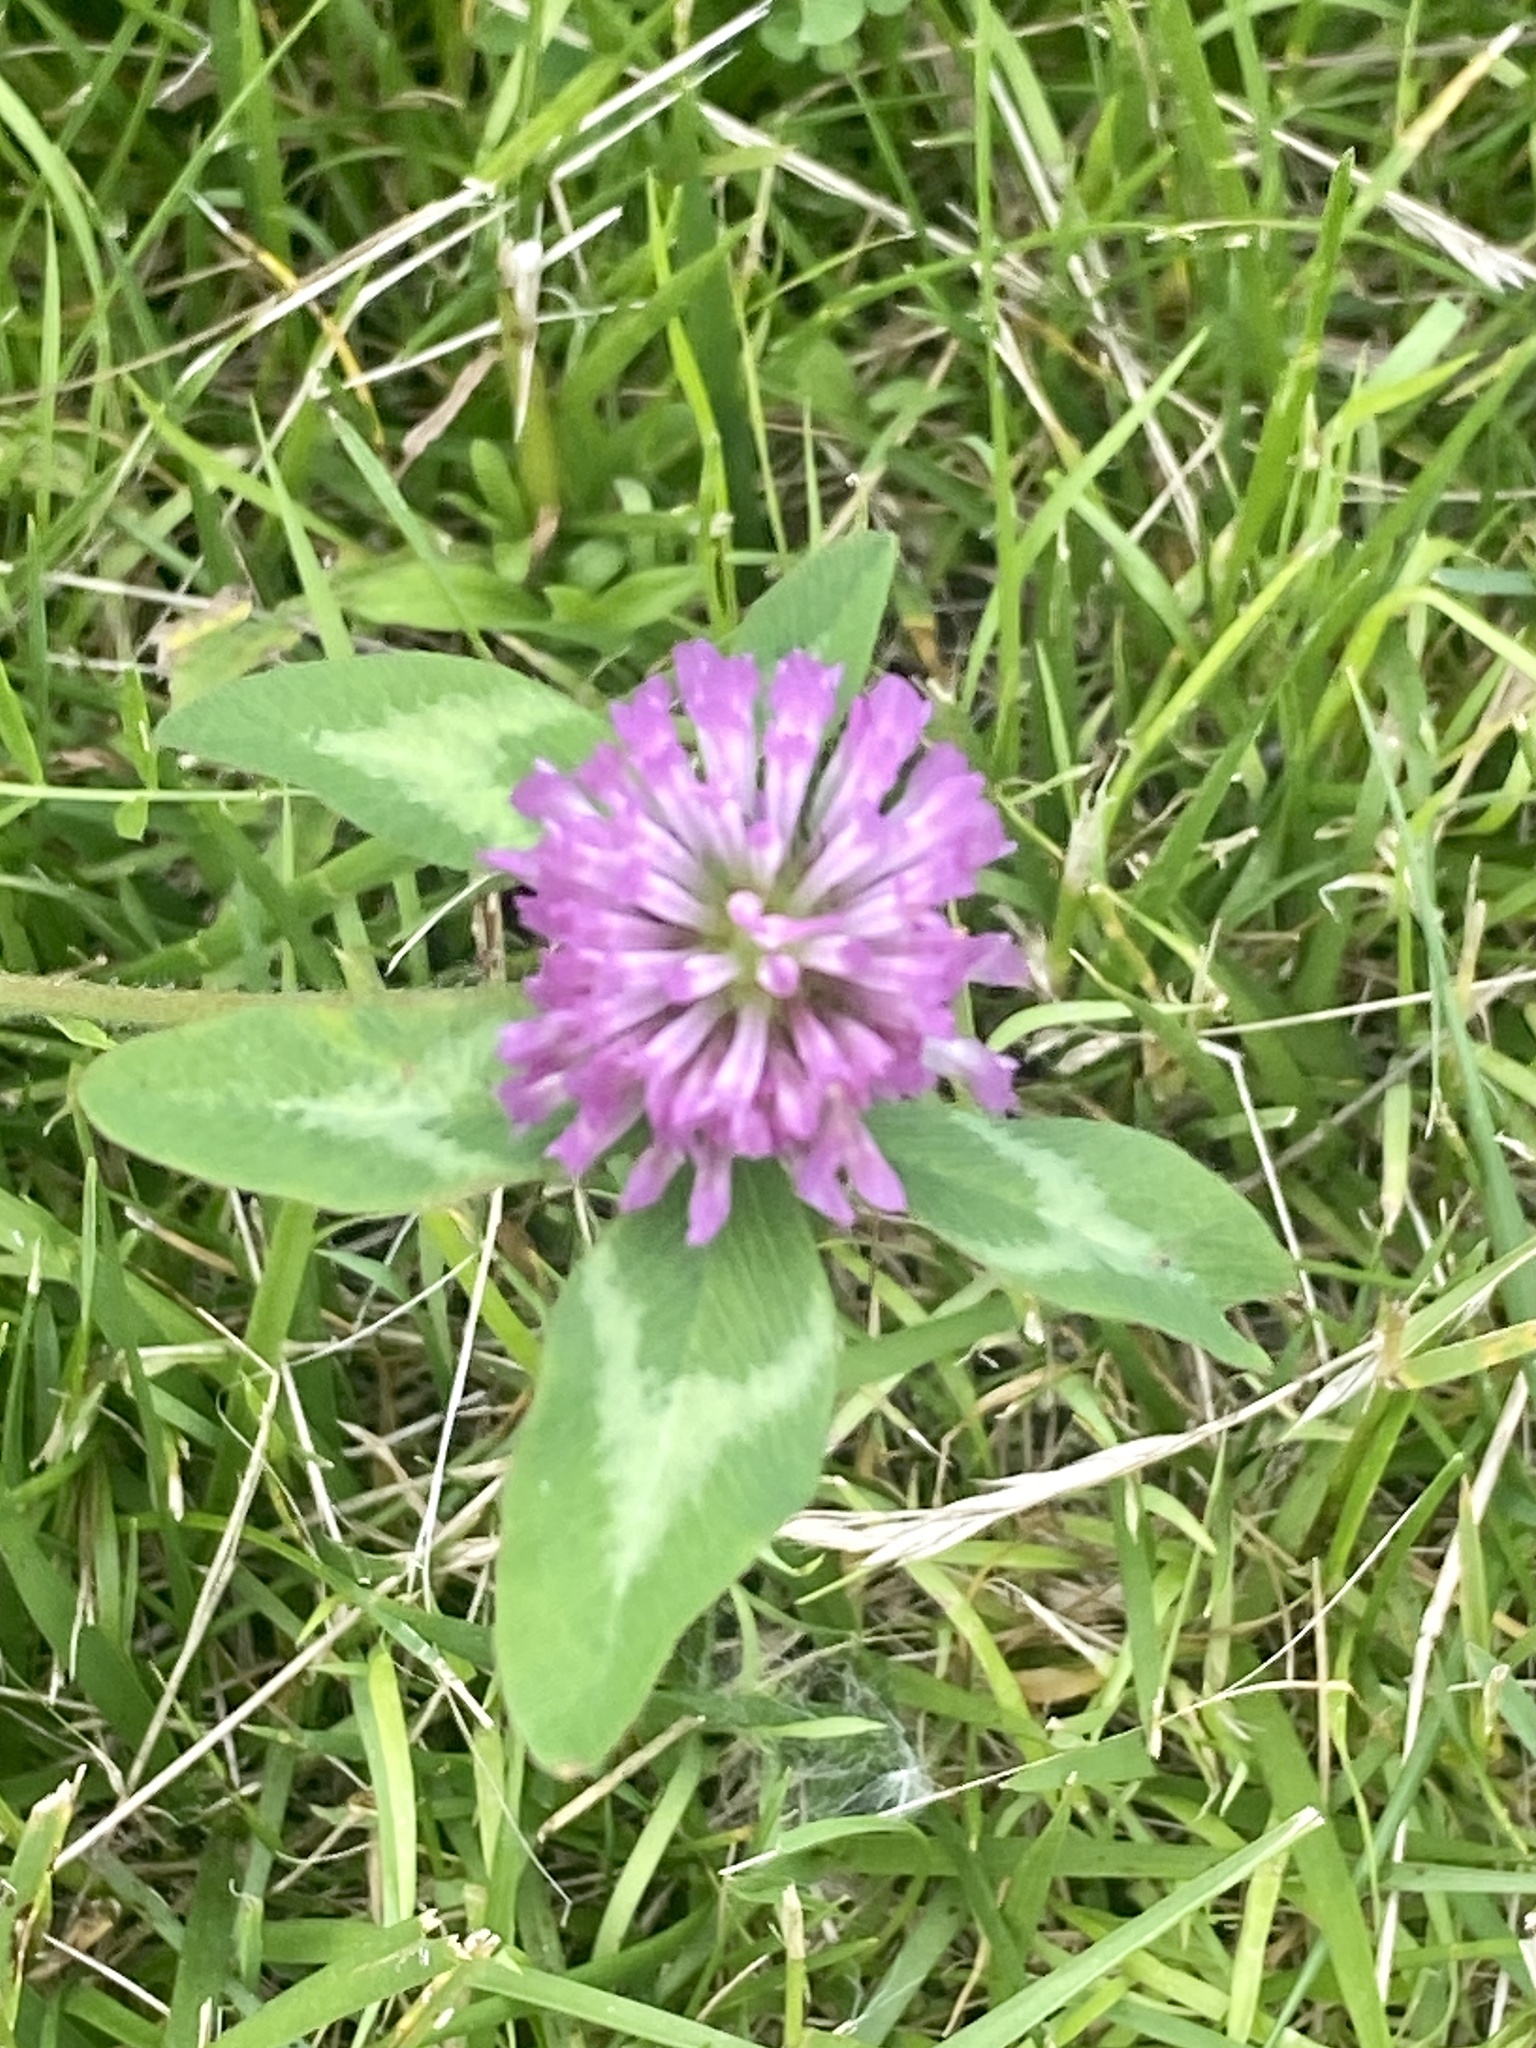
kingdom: Plantae
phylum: Tracheophyta
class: Magnoliopsida
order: Fabales
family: Fabaceae
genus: Trifolium
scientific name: Trifolium pratense
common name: Red clover
